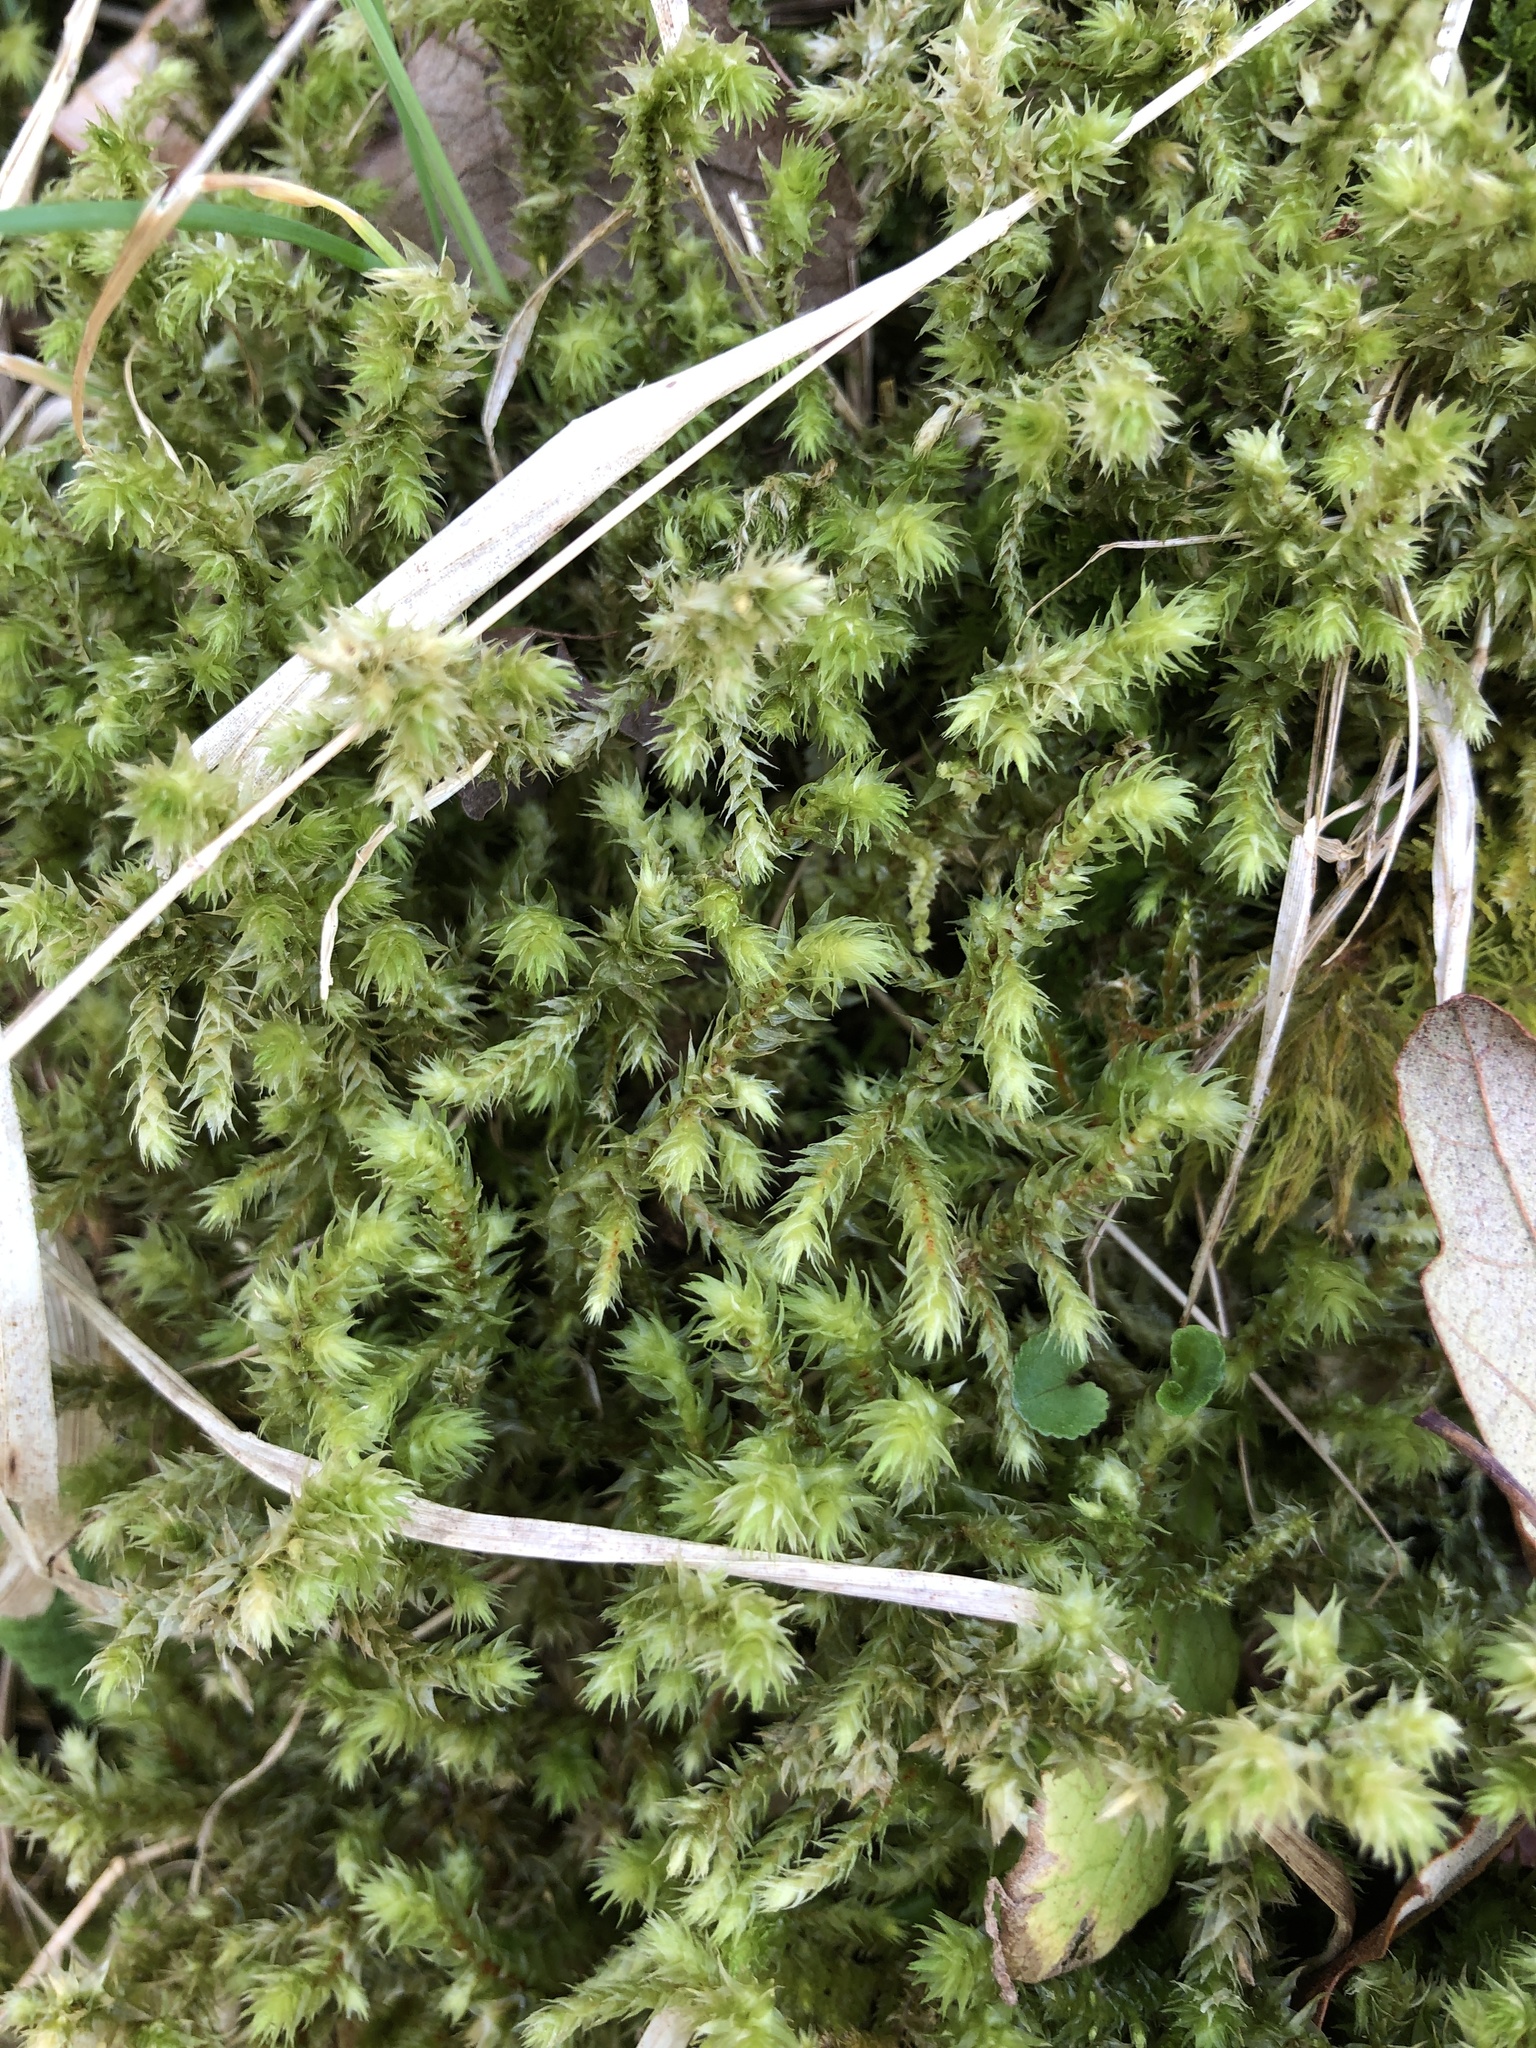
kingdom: Plantae
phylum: Bryophyta
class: Bryopsida
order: Hypnales
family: Hylocomiaceae
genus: Hylocomiadelphus
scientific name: Hylocomiadelphus triquetrus
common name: Rough goose neck moss
